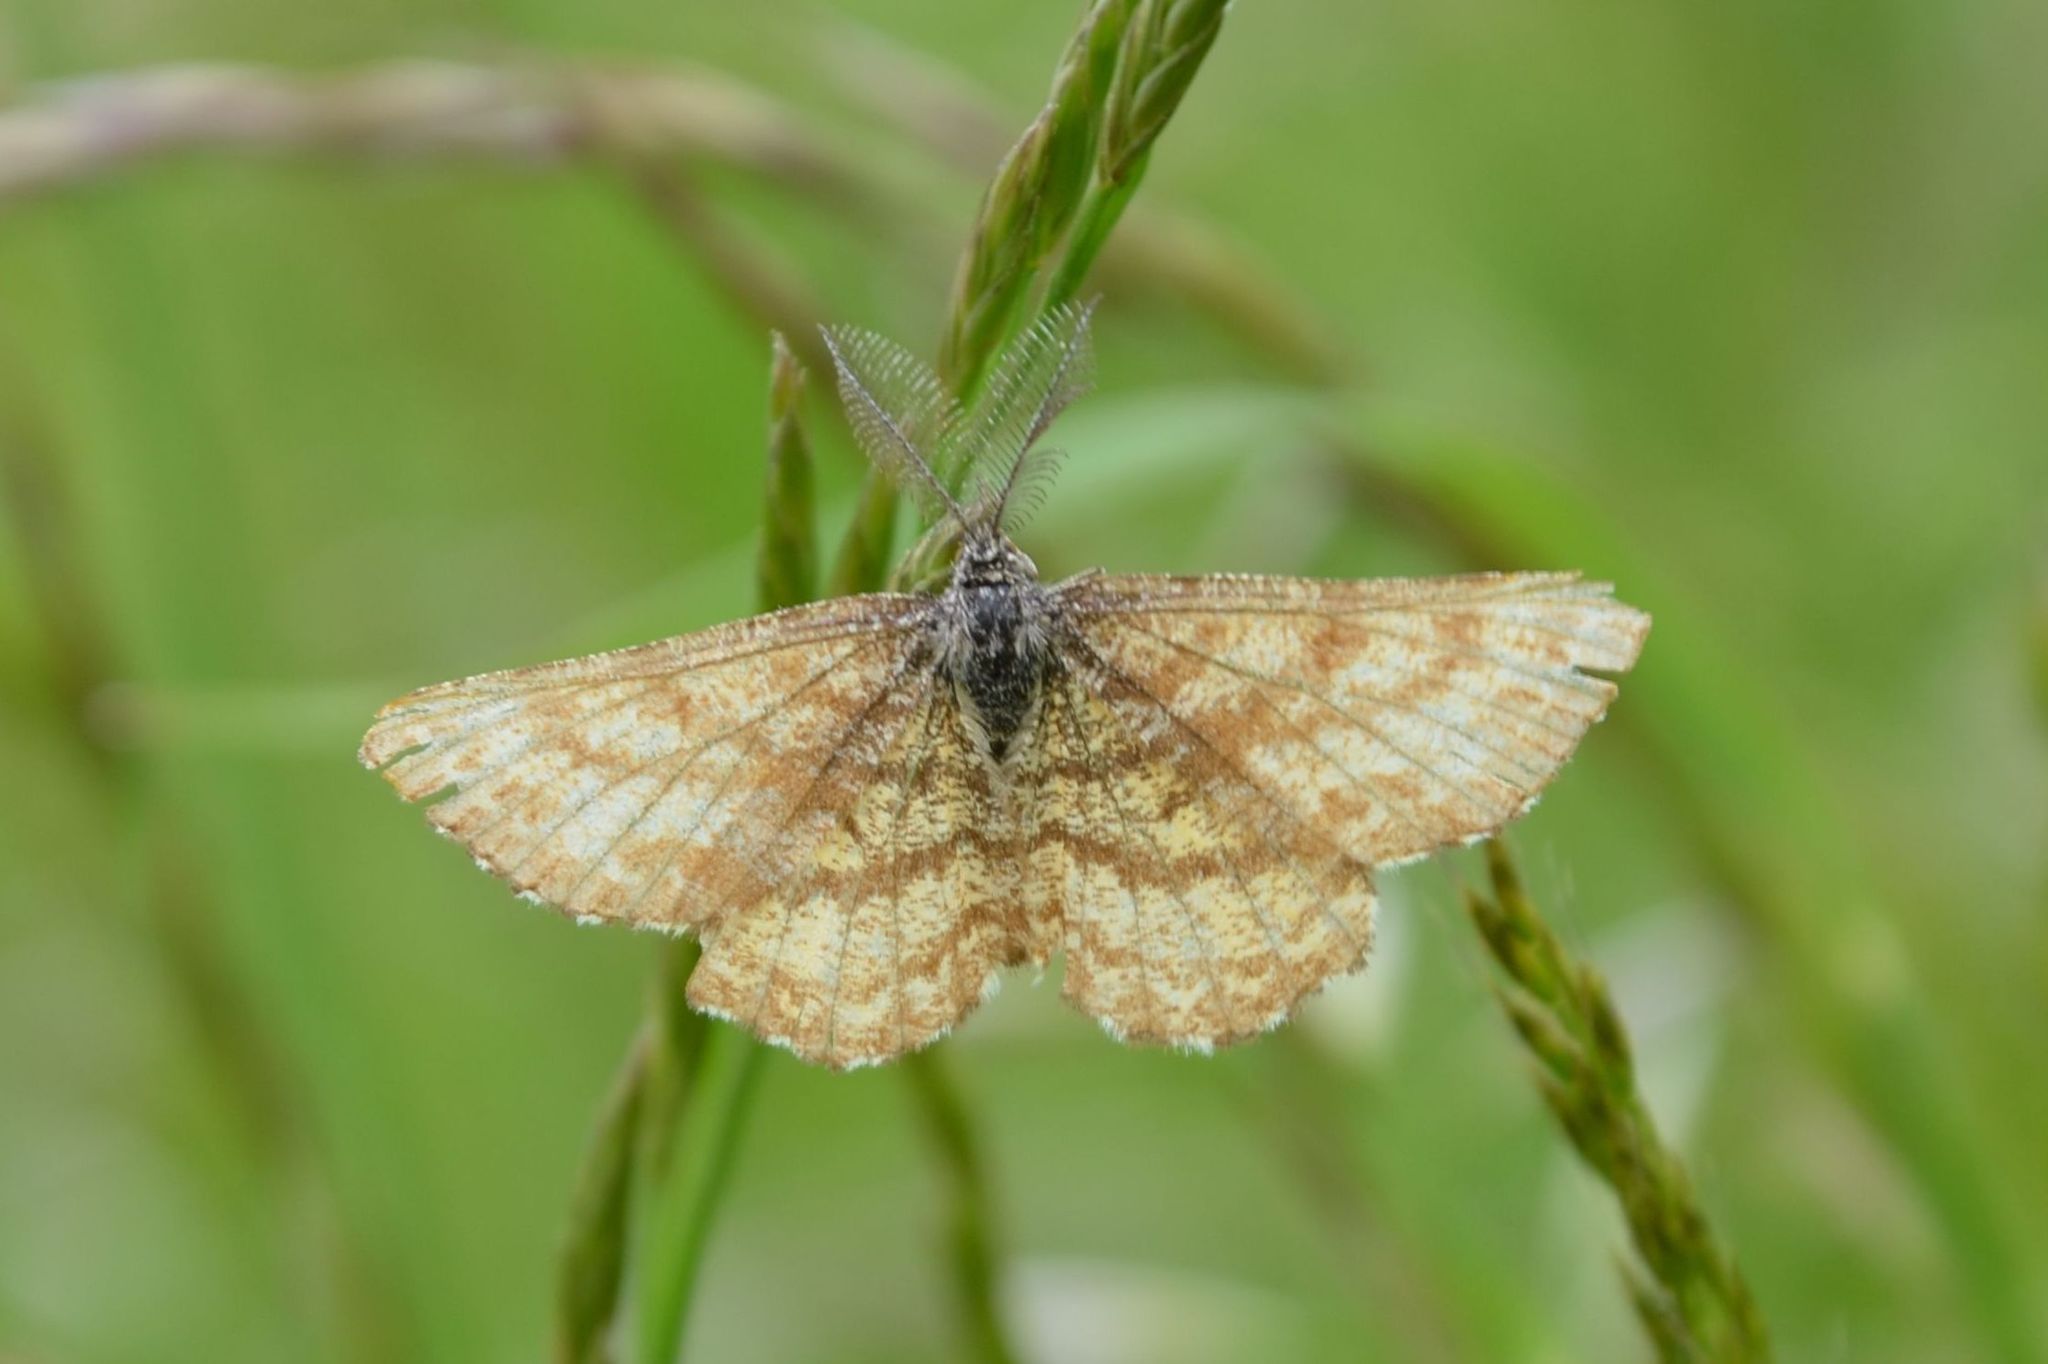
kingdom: Animalia
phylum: Arthropoda
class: Insecta
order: Lepidoptera
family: Geometridae
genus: Ematurga
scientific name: Ematurga atomaria
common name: Common heath
